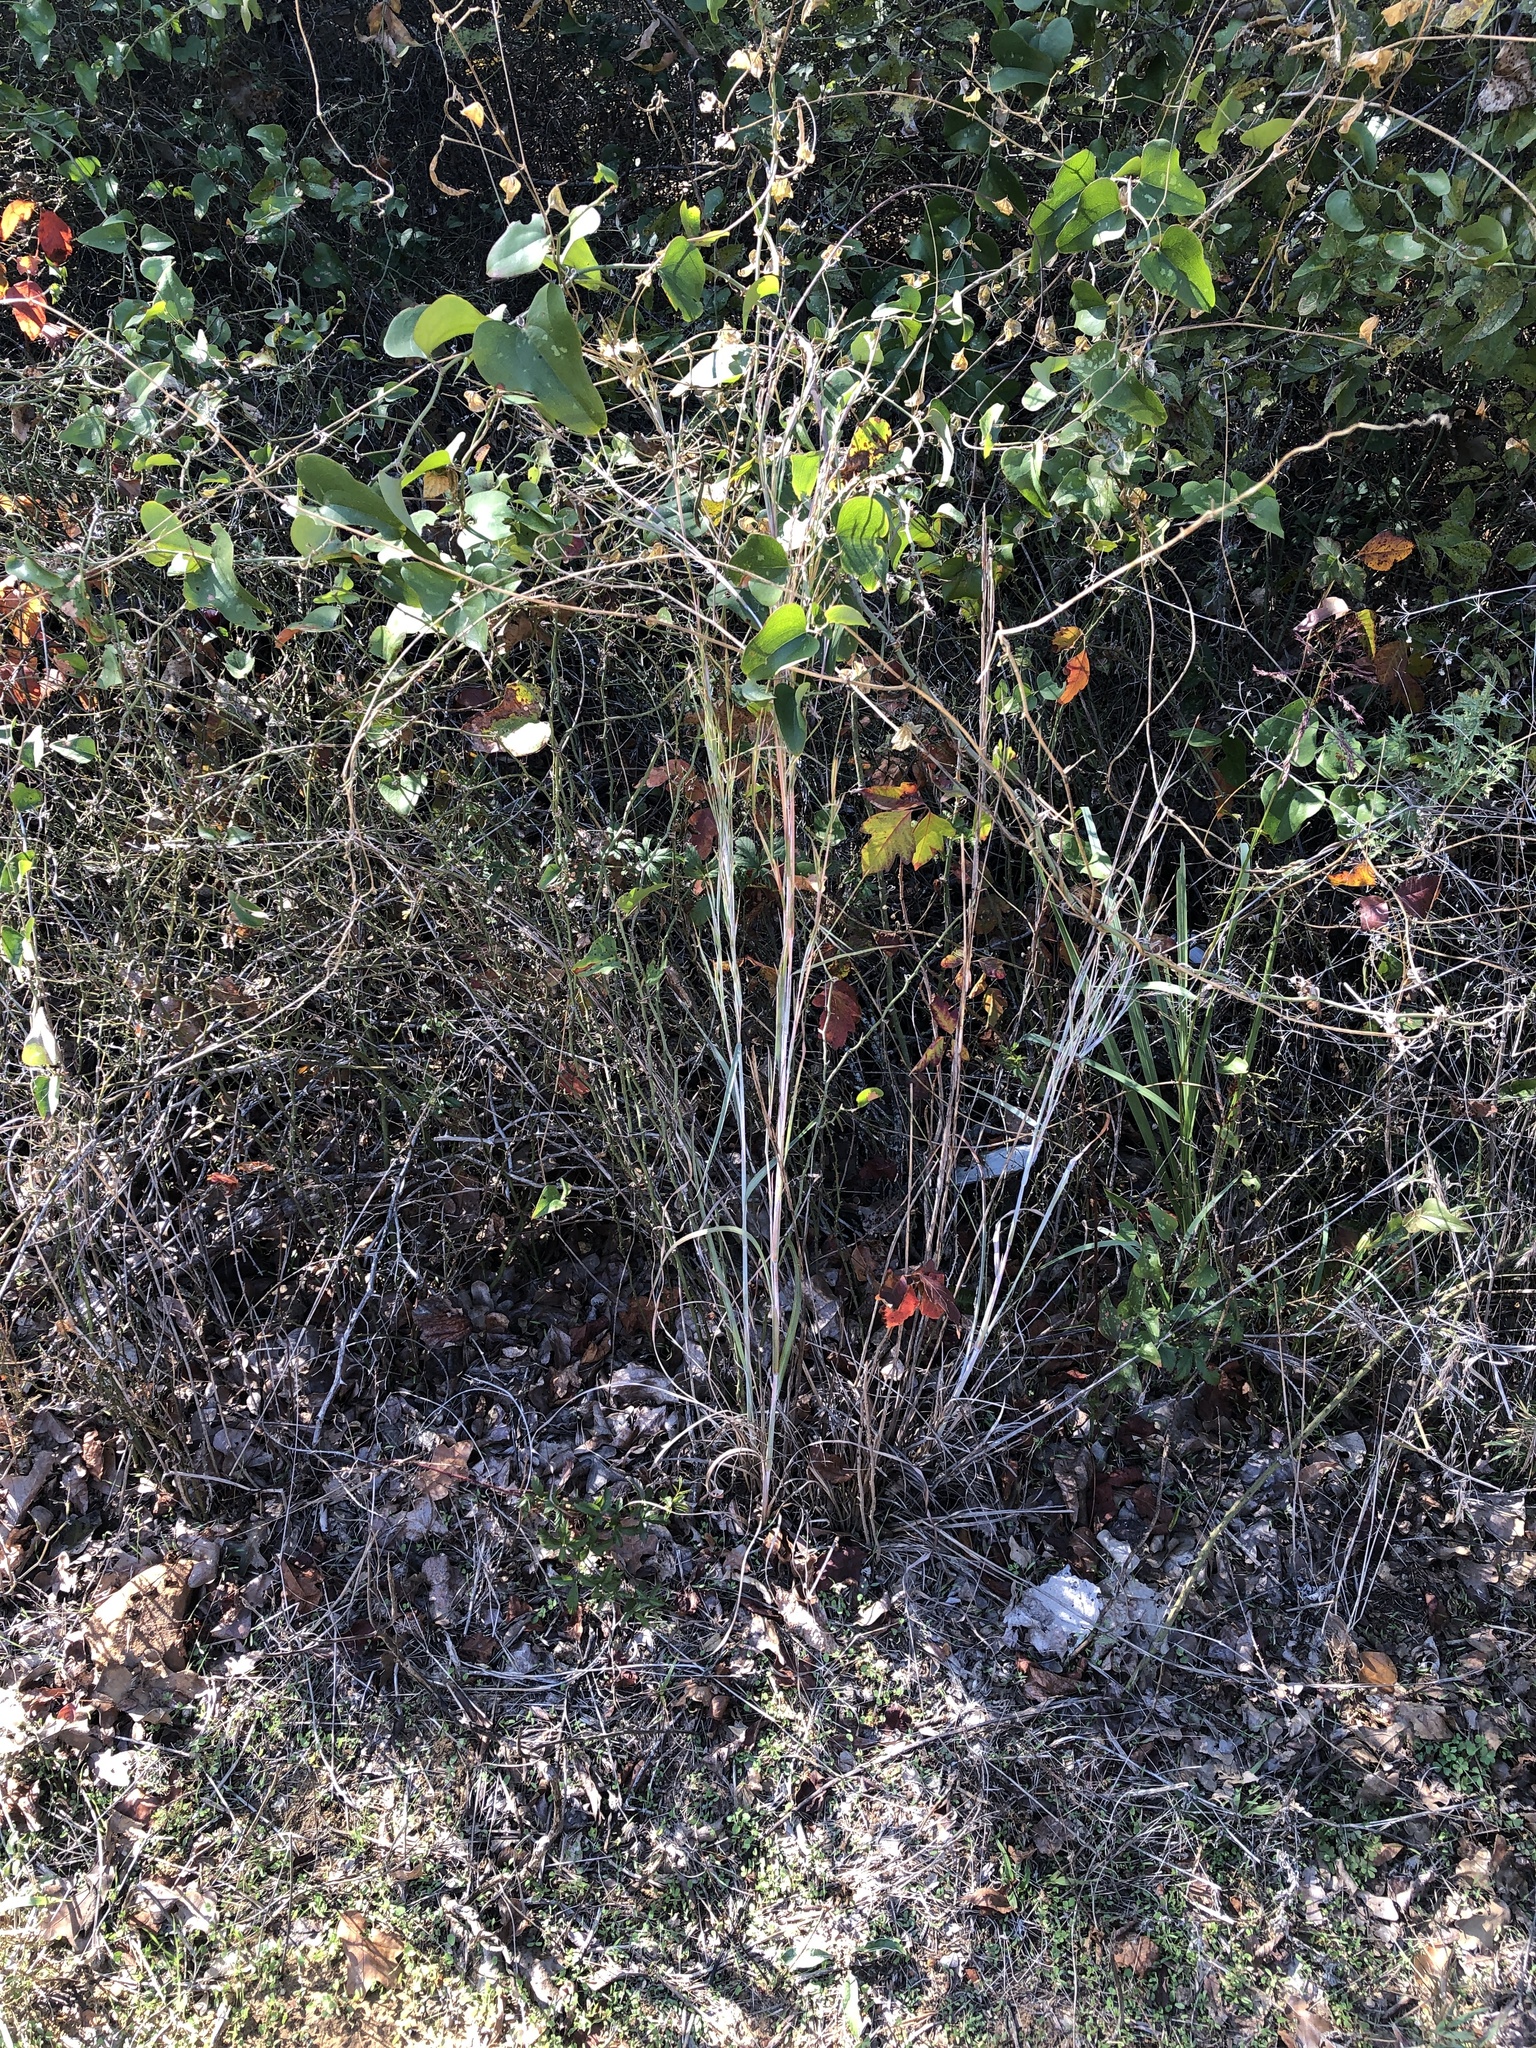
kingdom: Plantae
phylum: Tracheophyta
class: Liliopsida
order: Poales
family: Poaceae
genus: Schizachyrium
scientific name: Schizachyrium scoparium
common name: Little bluestem
